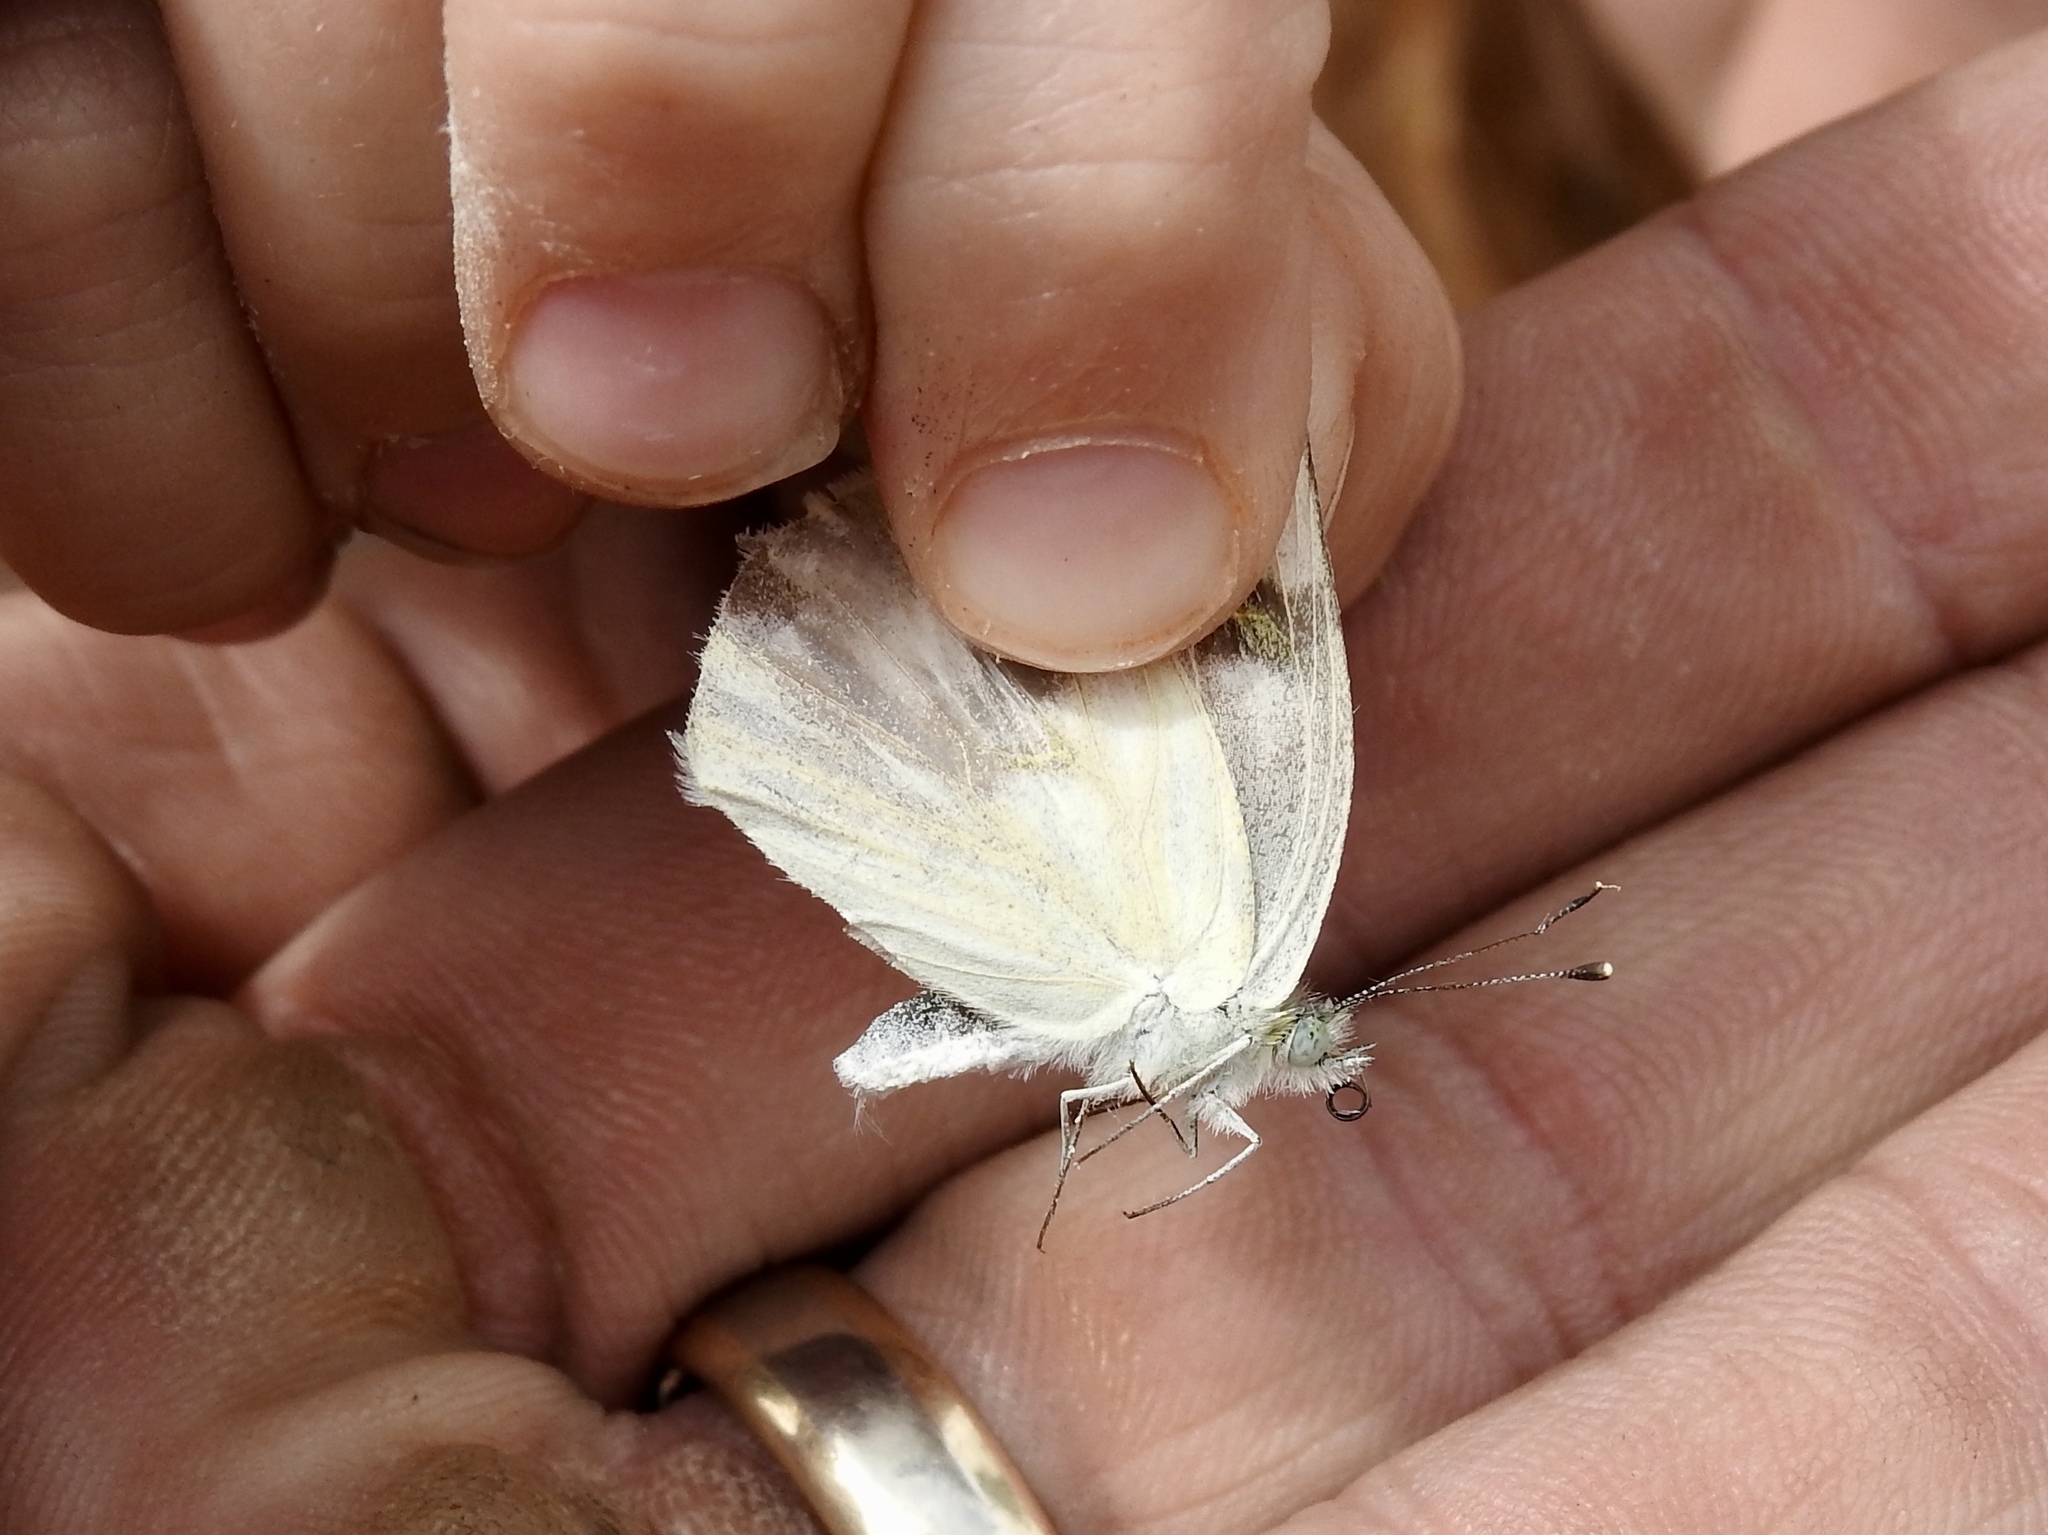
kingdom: Animalia
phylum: Arthropoda
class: Insecta
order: Lepidoptera
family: Pieridae
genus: Pontia
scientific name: Pontia protodice
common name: Checkered white
